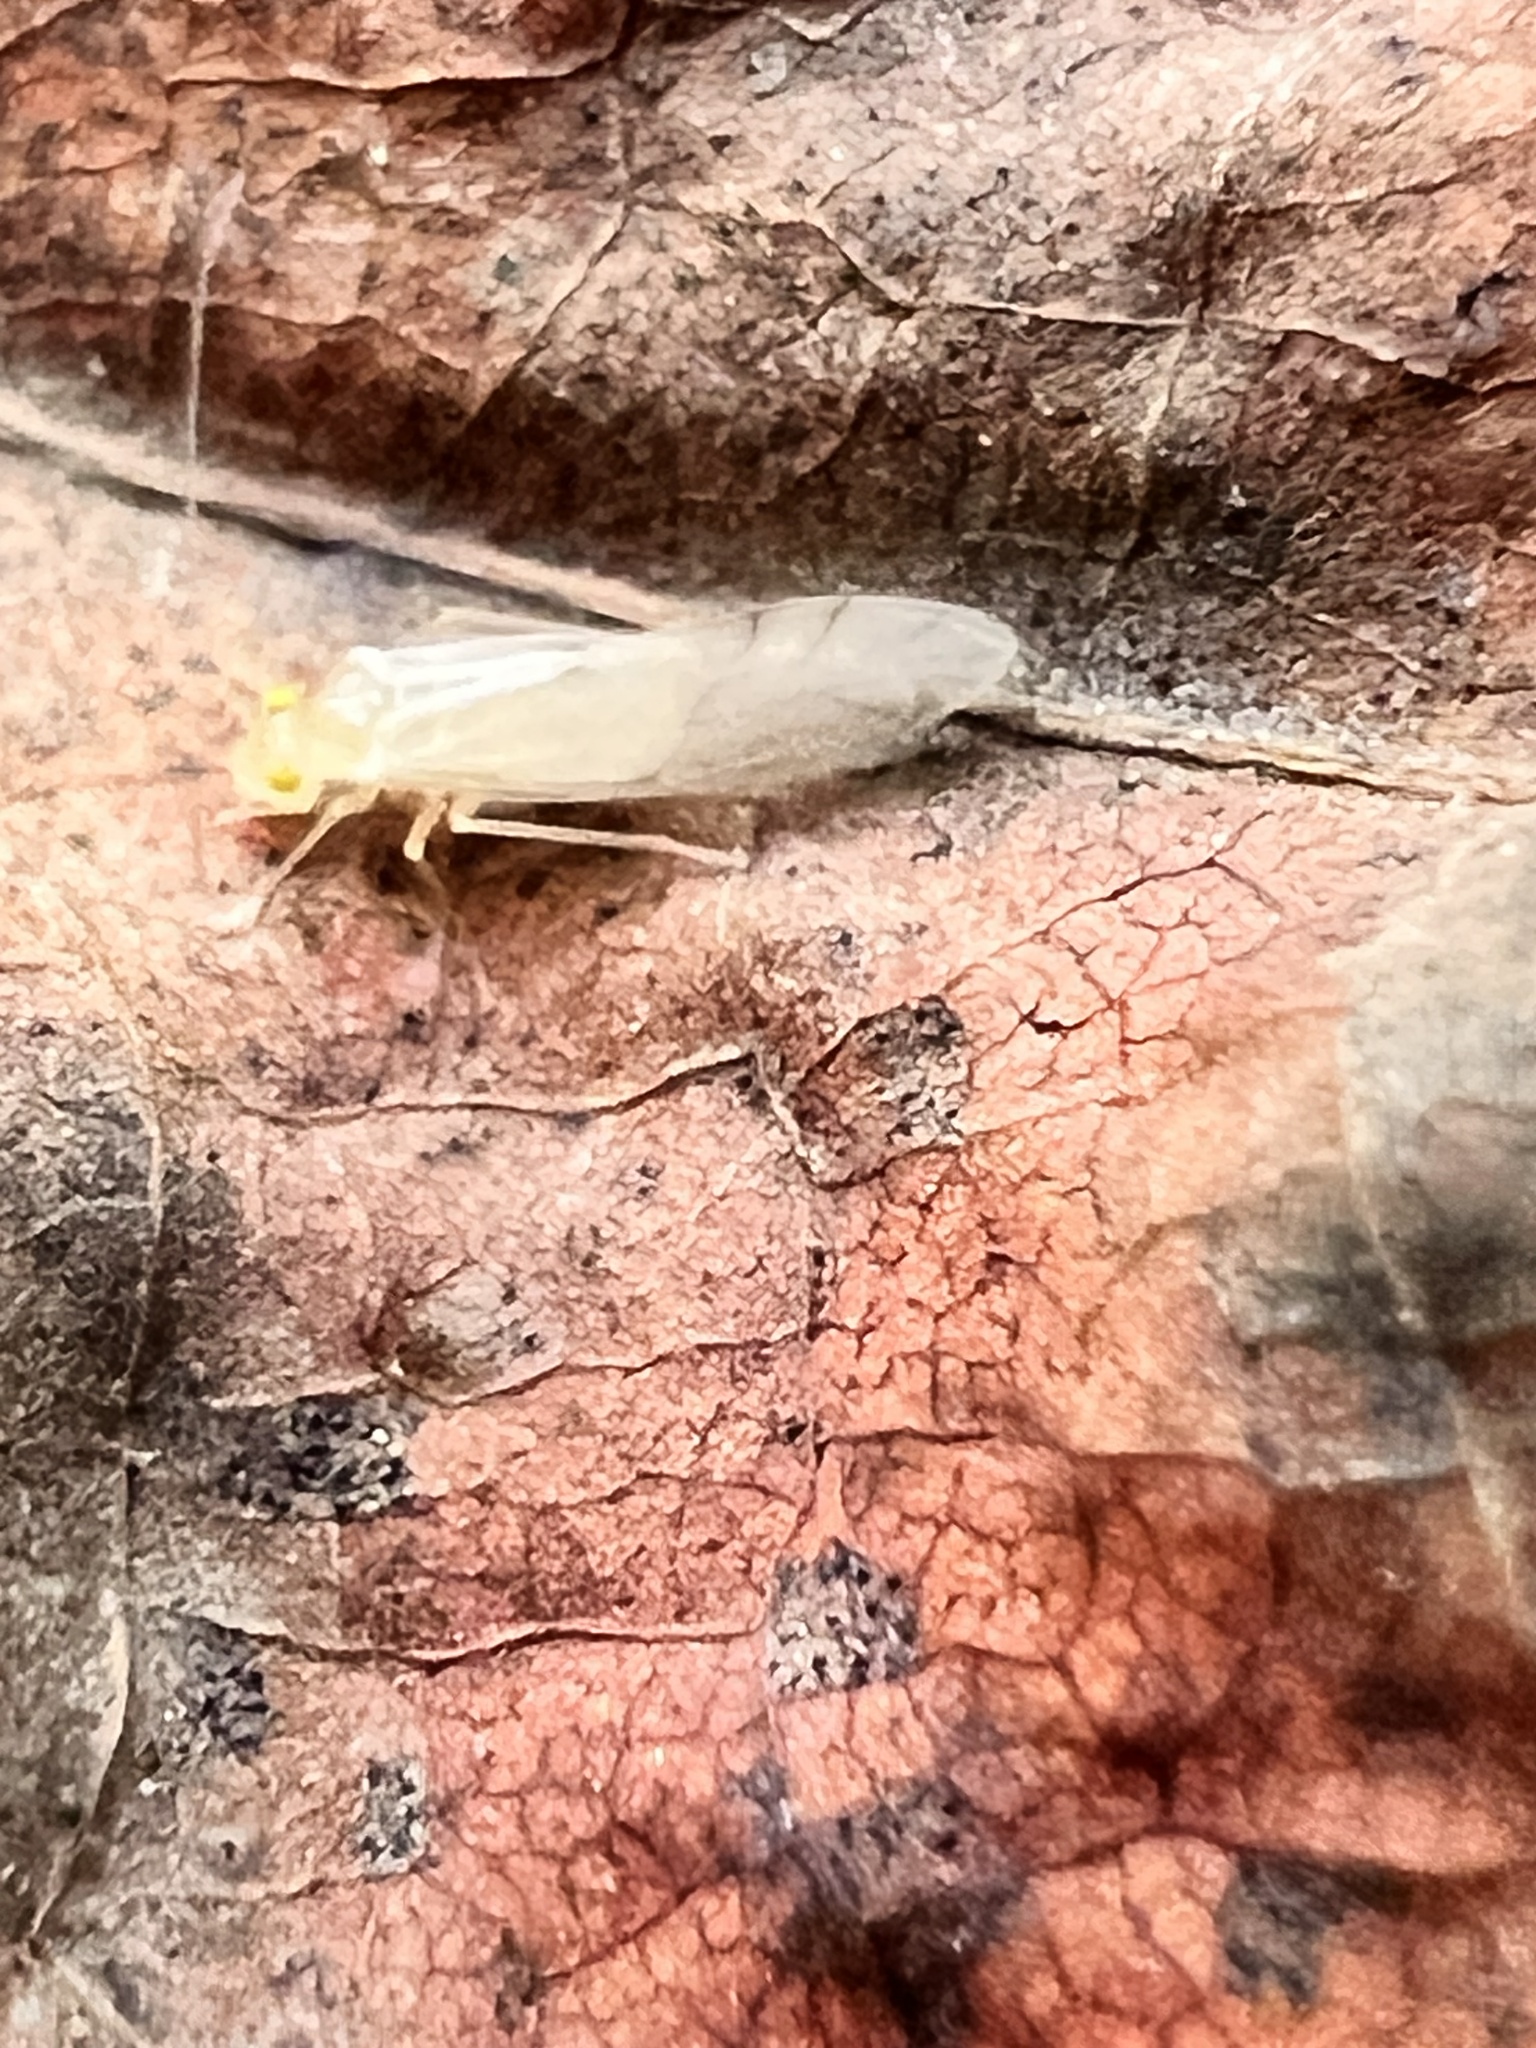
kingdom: Animalia
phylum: Arthropoda
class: Insecta
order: Psocodea
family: Paracaeciliidae
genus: Xanthocaecilius
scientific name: Xanthocaecilius sommermanae
